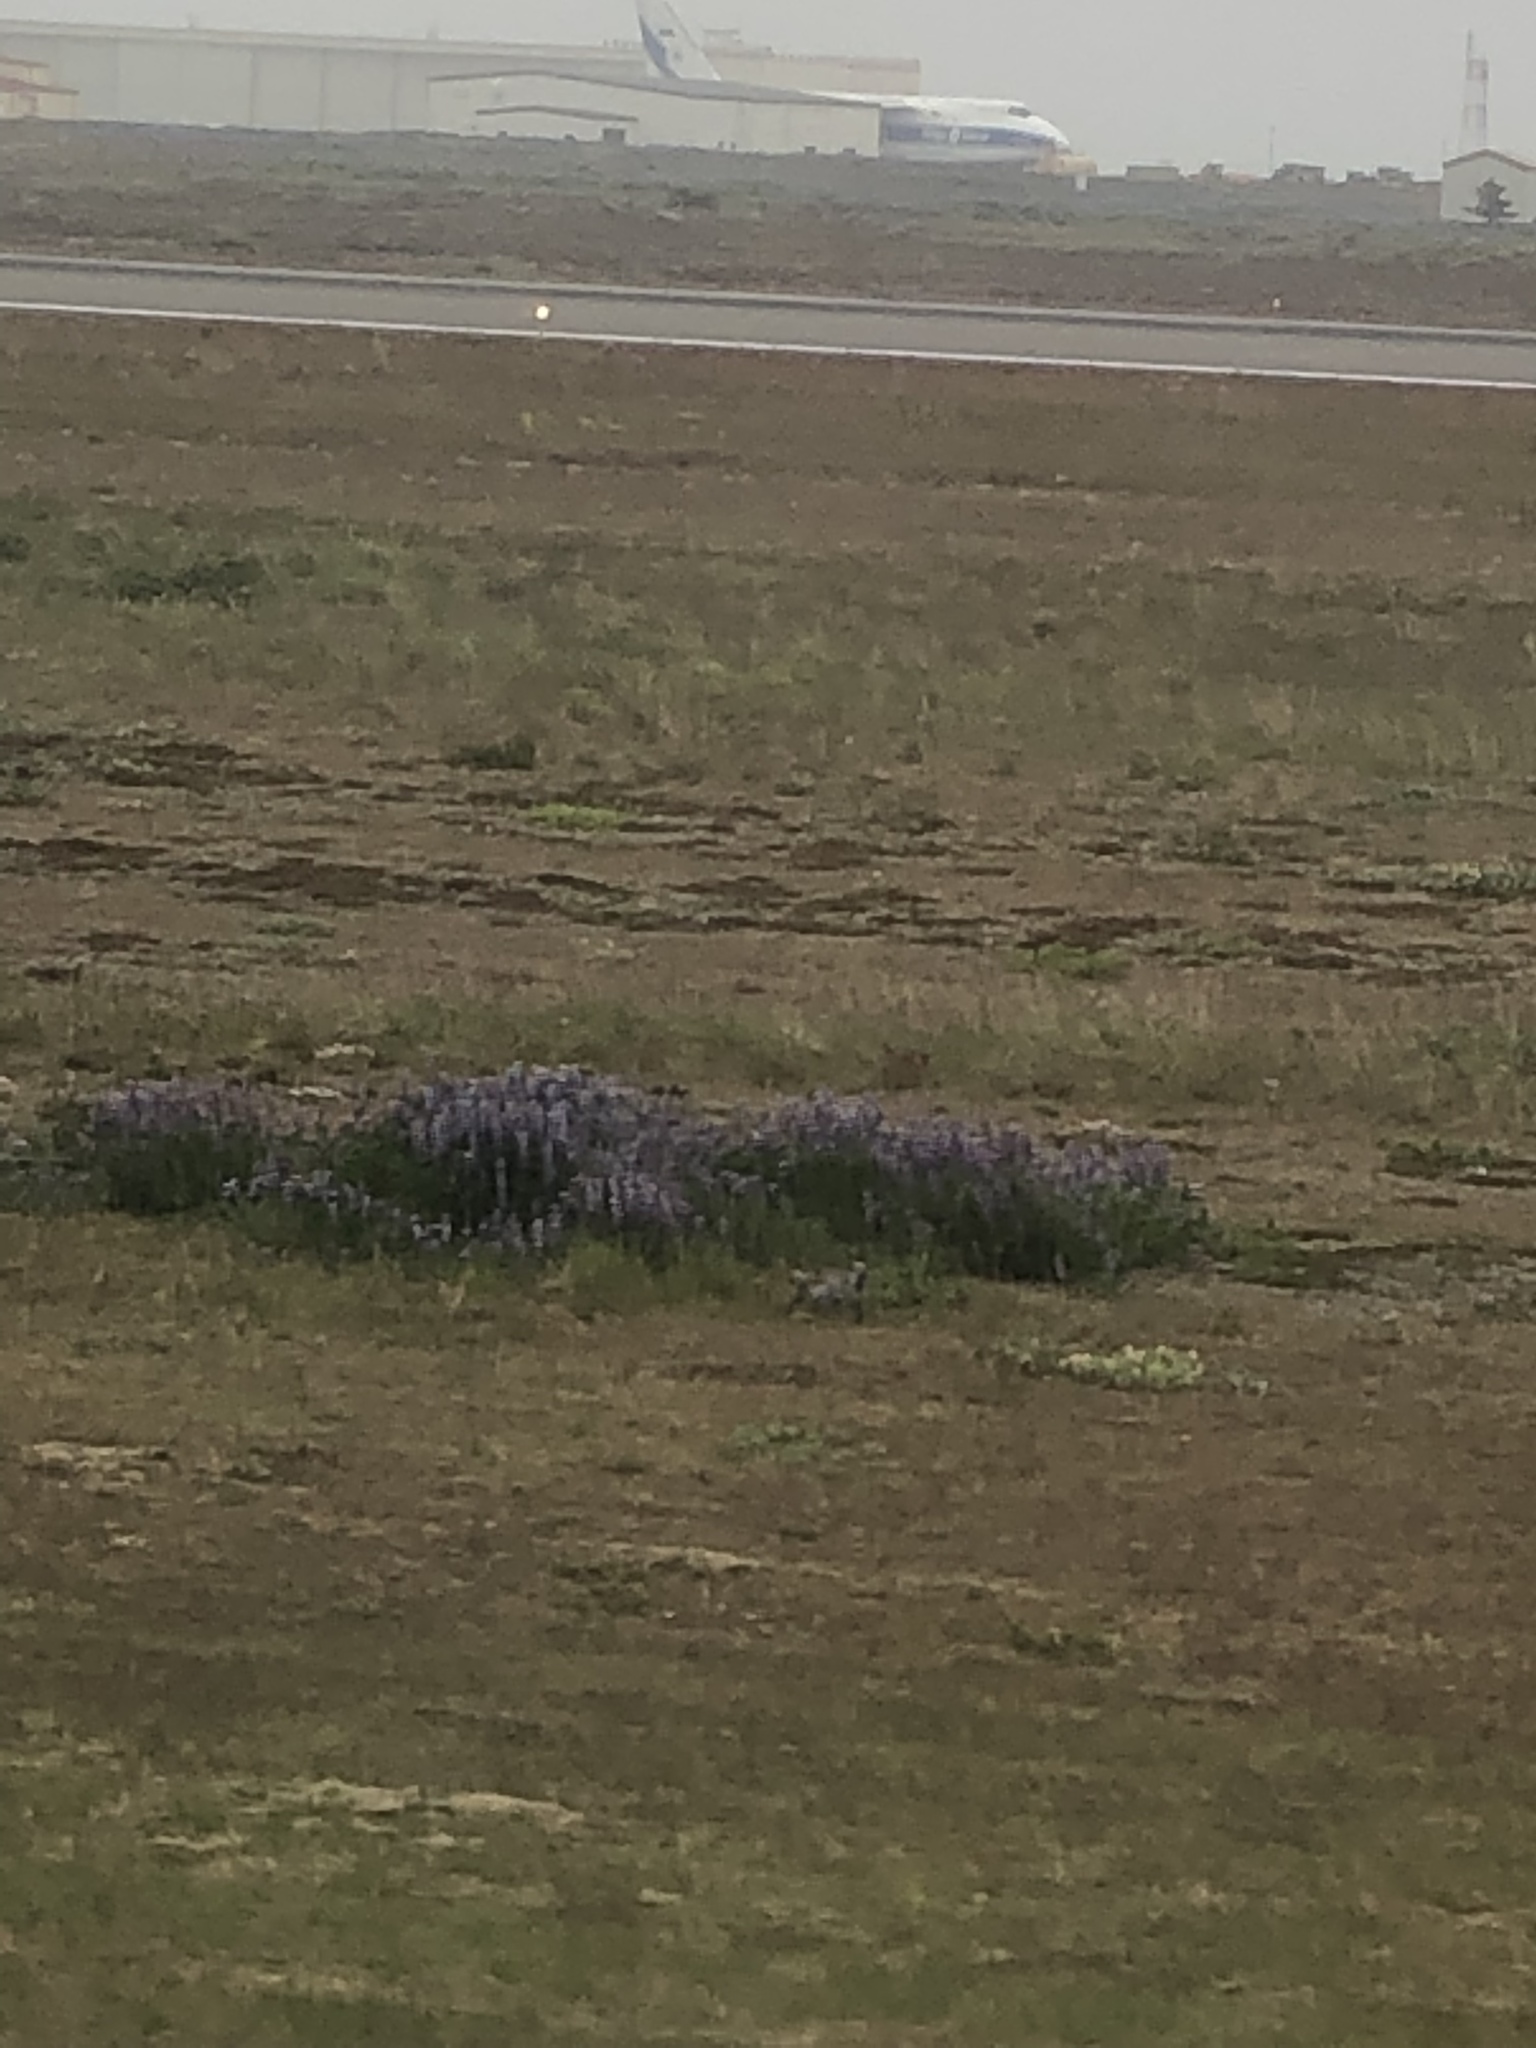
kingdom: Plantae
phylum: Tracheophyta
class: Magnoliopsida
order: Fabales
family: Fabaceae
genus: Lupinus
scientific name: Lupinus nootkatensis
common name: Nootka lupine
